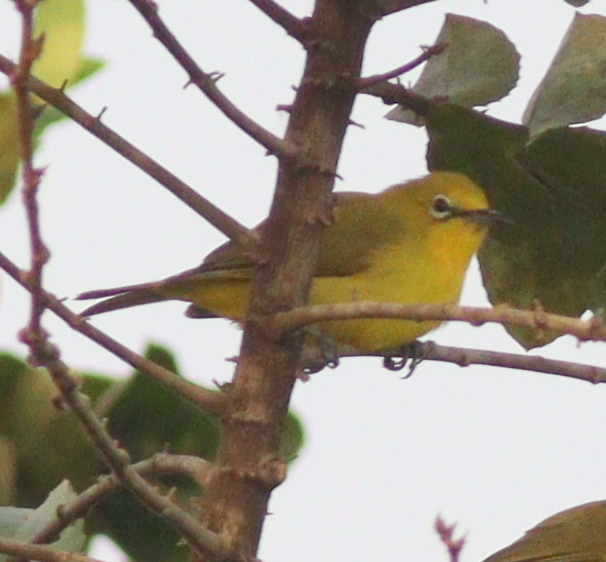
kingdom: Animalia
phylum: Chordata
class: Aves
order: Passeriformes
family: Zosteropidae
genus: Zosterops
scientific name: Zosterops senegalensis
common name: African yellow white-eye
